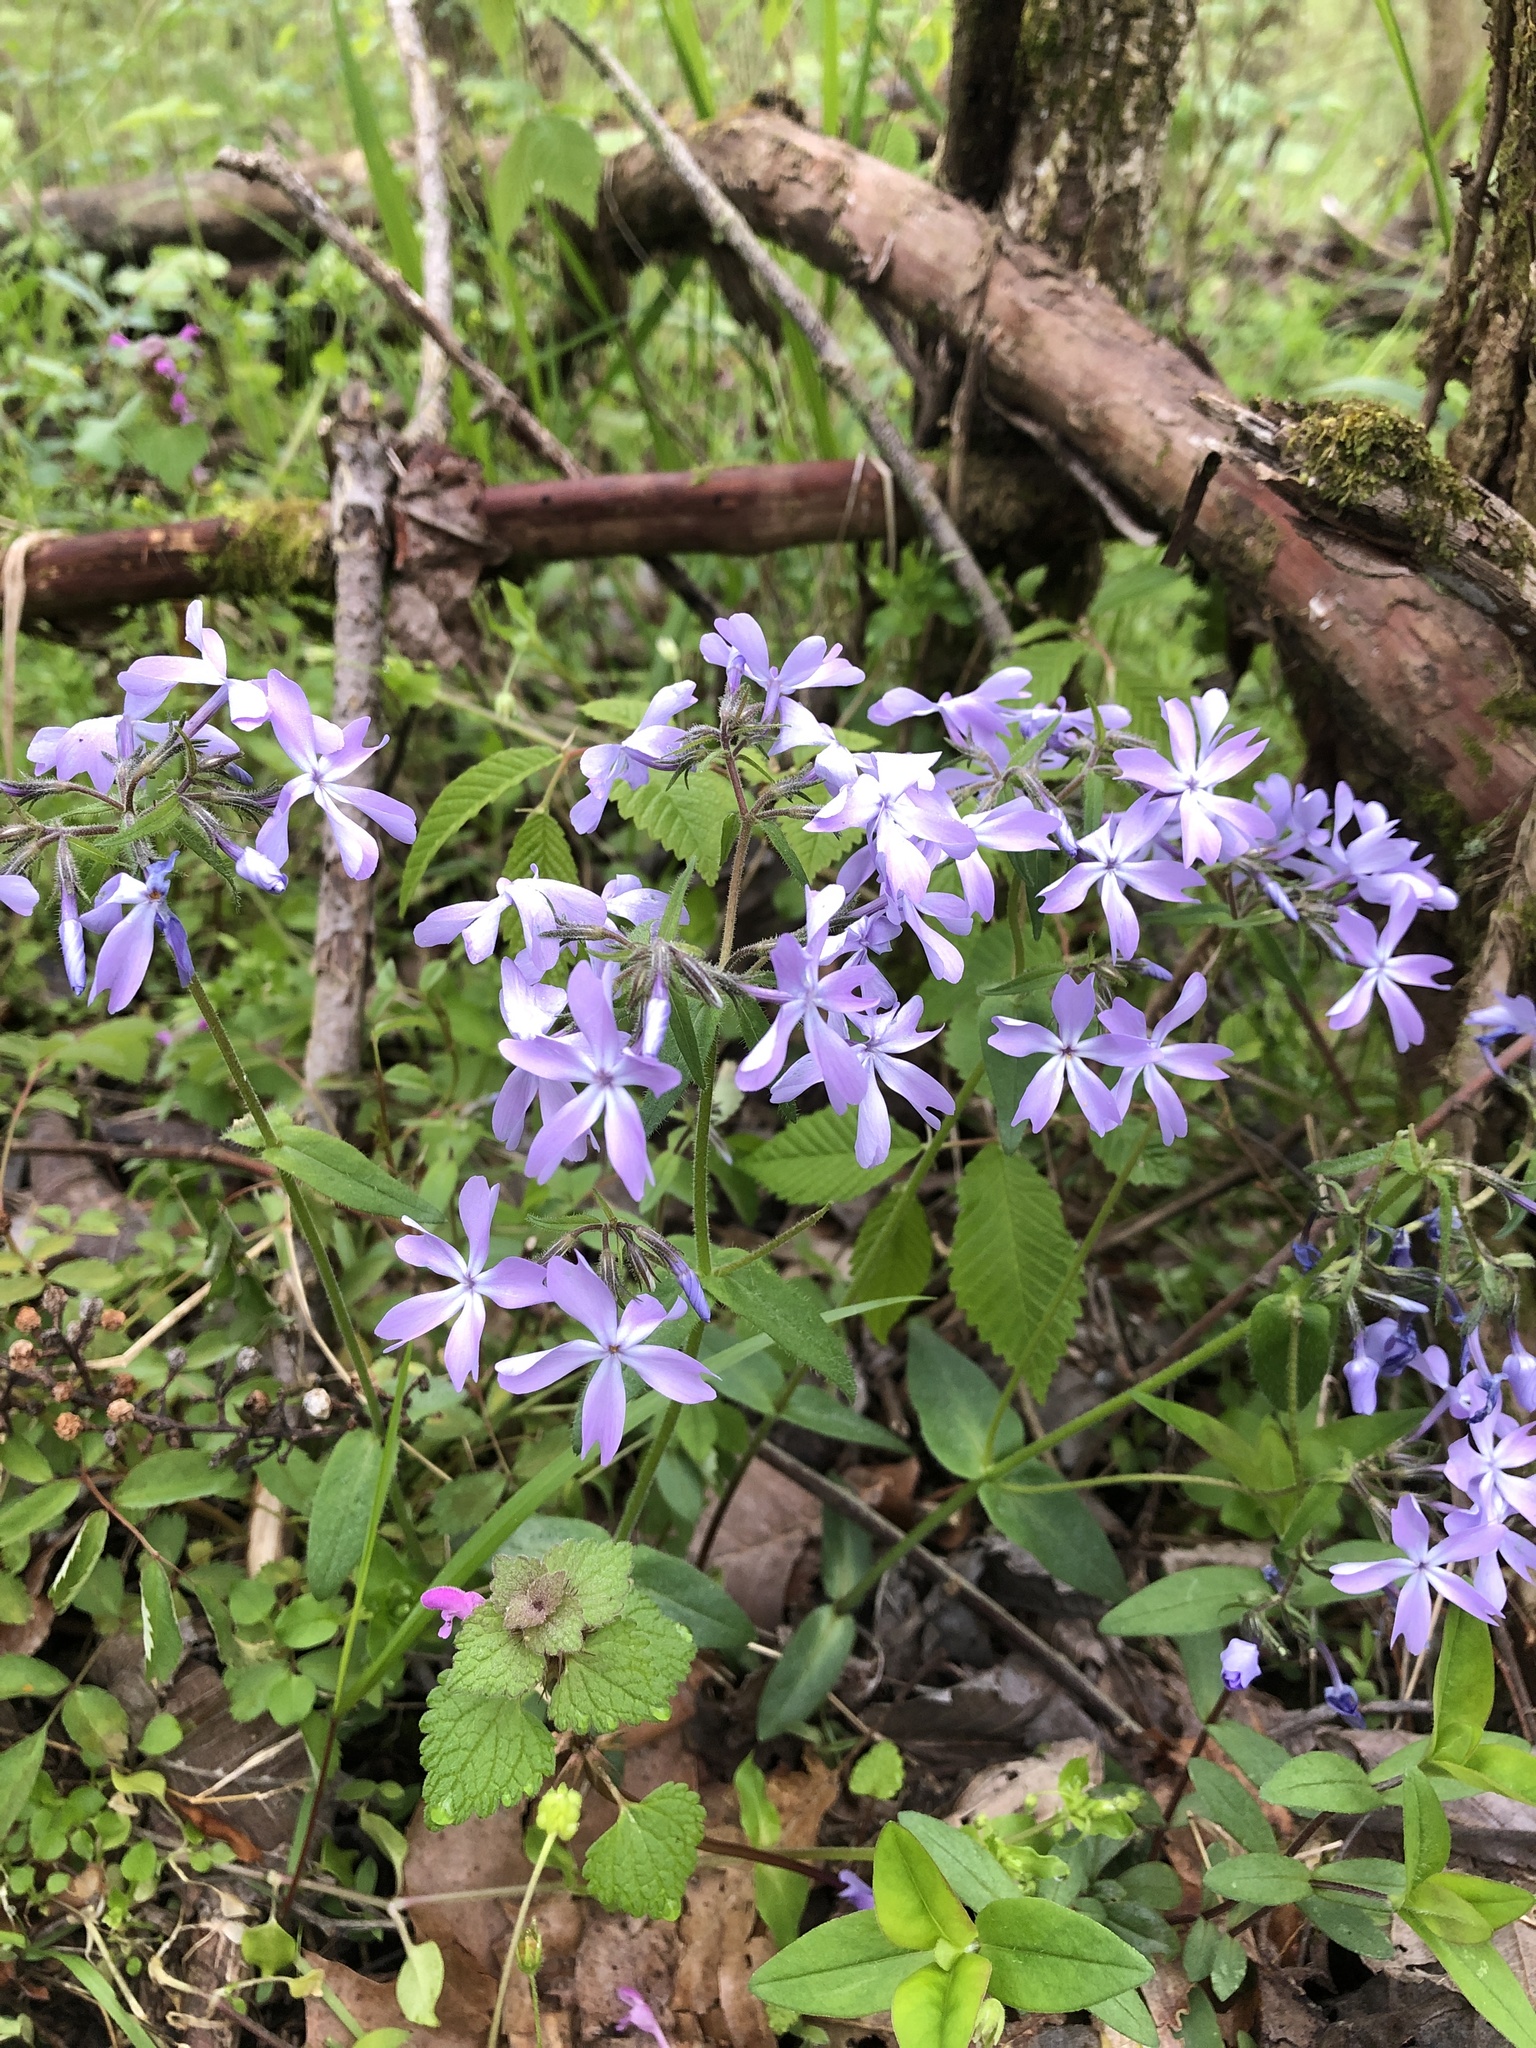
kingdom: Plantae
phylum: Tracheophyta
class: Magnoliopsida
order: Ericales
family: Polemoniaceae
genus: Phlox
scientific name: Phlox divaricata
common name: Blue phlox
